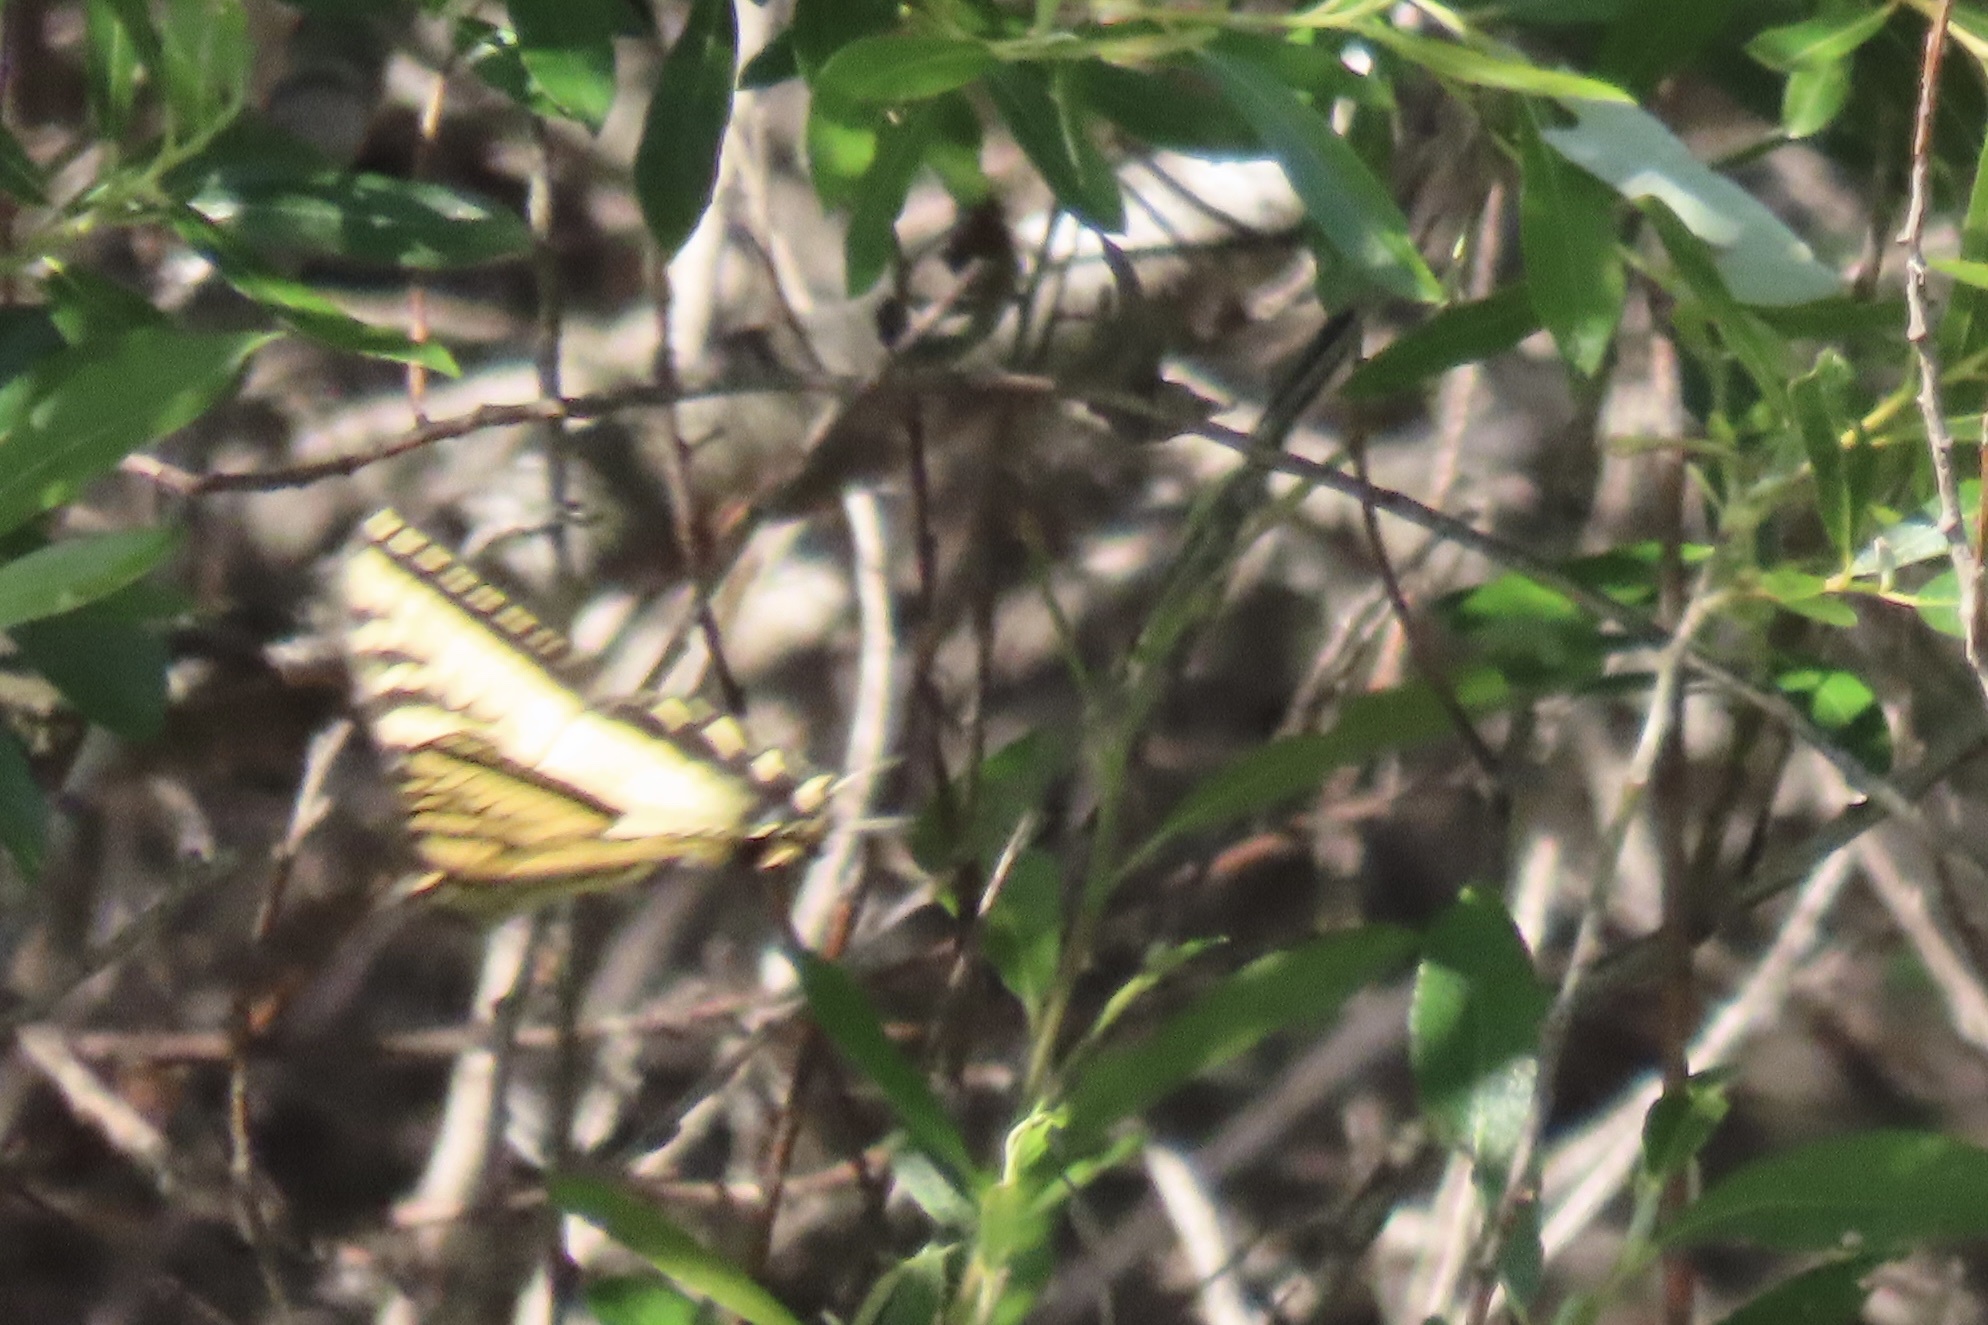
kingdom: Animalia
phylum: Arthropoda
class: Insecta
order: Lepidoptera
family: Papilionidae
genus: Papilio
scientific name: Papilio rutulus
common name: Western tiger swallowtail
